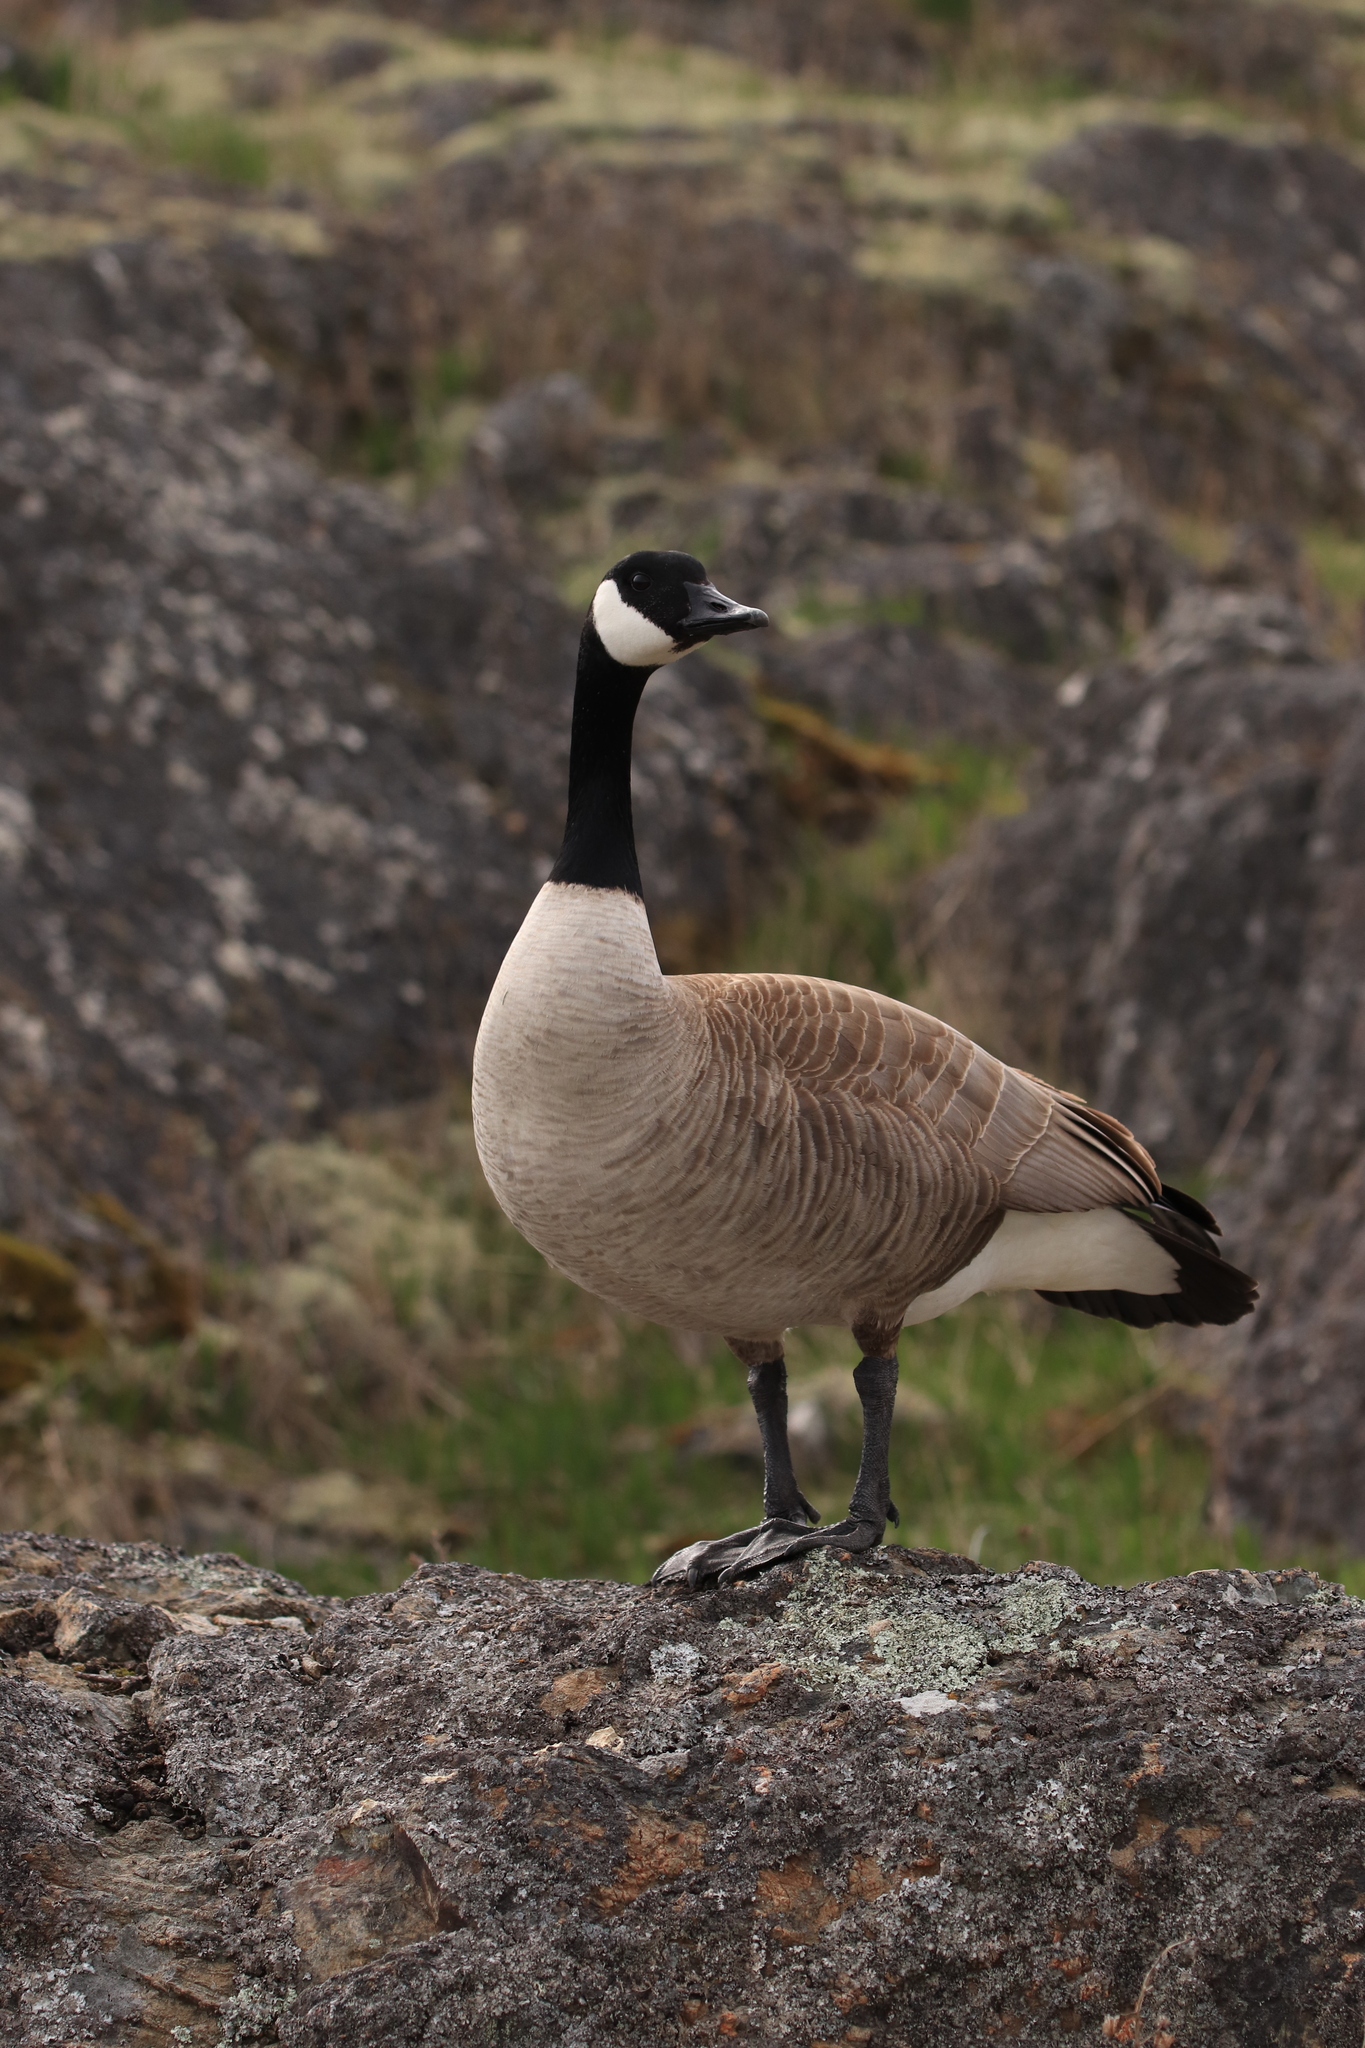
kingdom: Animalia
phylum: Chordata
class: Aves
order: Anseriformes
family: Anatidae
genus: Branta
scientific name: Branta canadensis
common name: Canada goose
